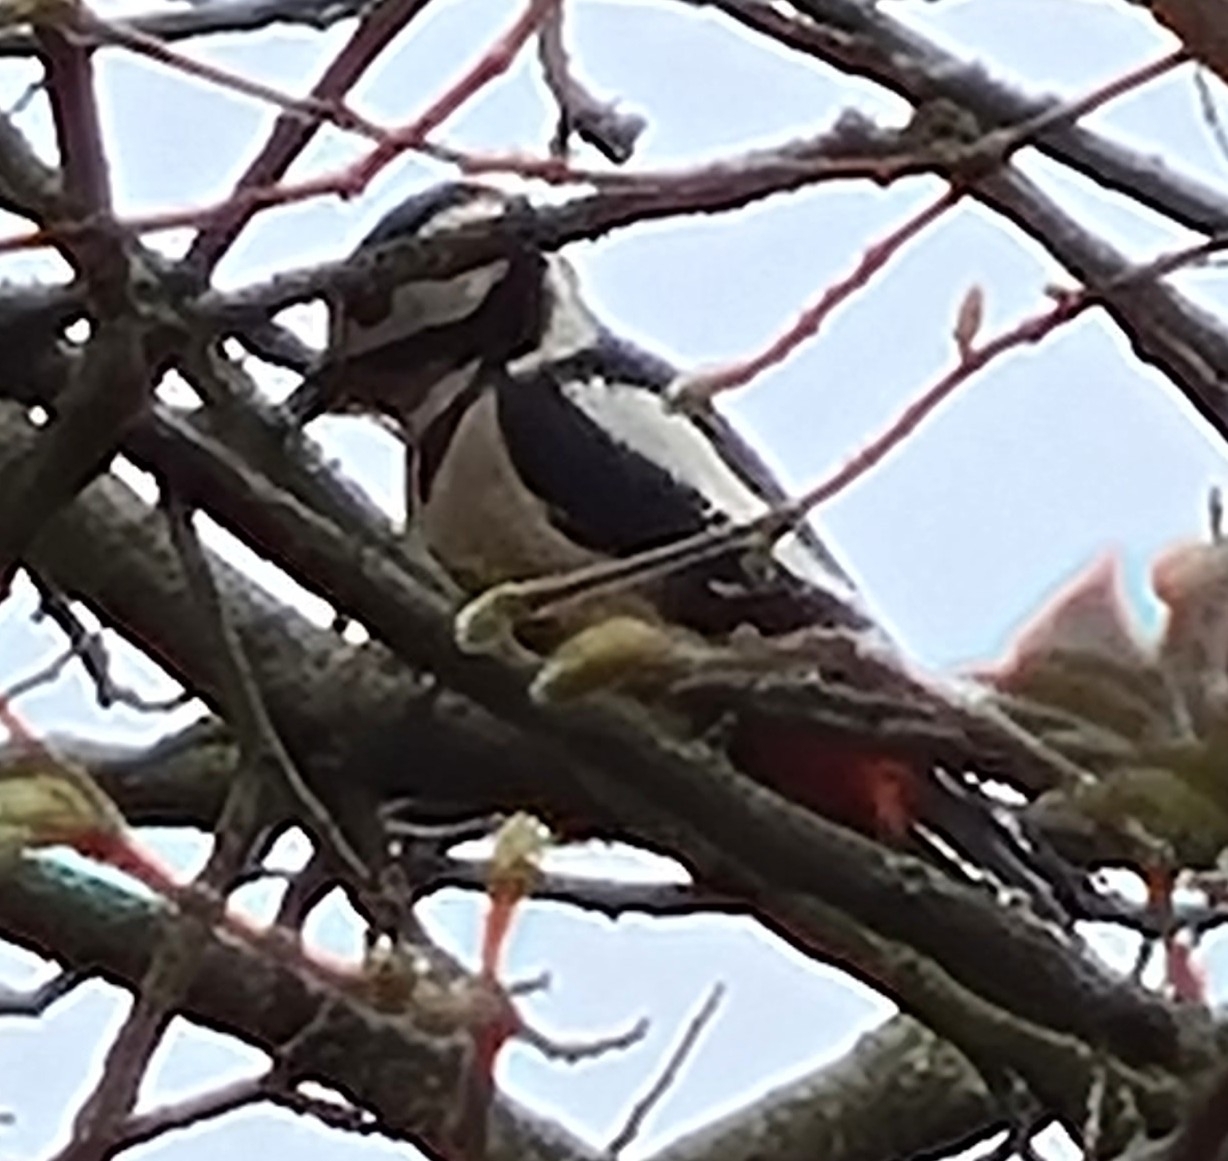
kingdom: Animalia
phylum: Chordata
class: Aves
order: Piciformes
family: Picidae
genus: Dendrocopos
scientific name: Dendrocopos major
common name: Great spotted woodpecker
